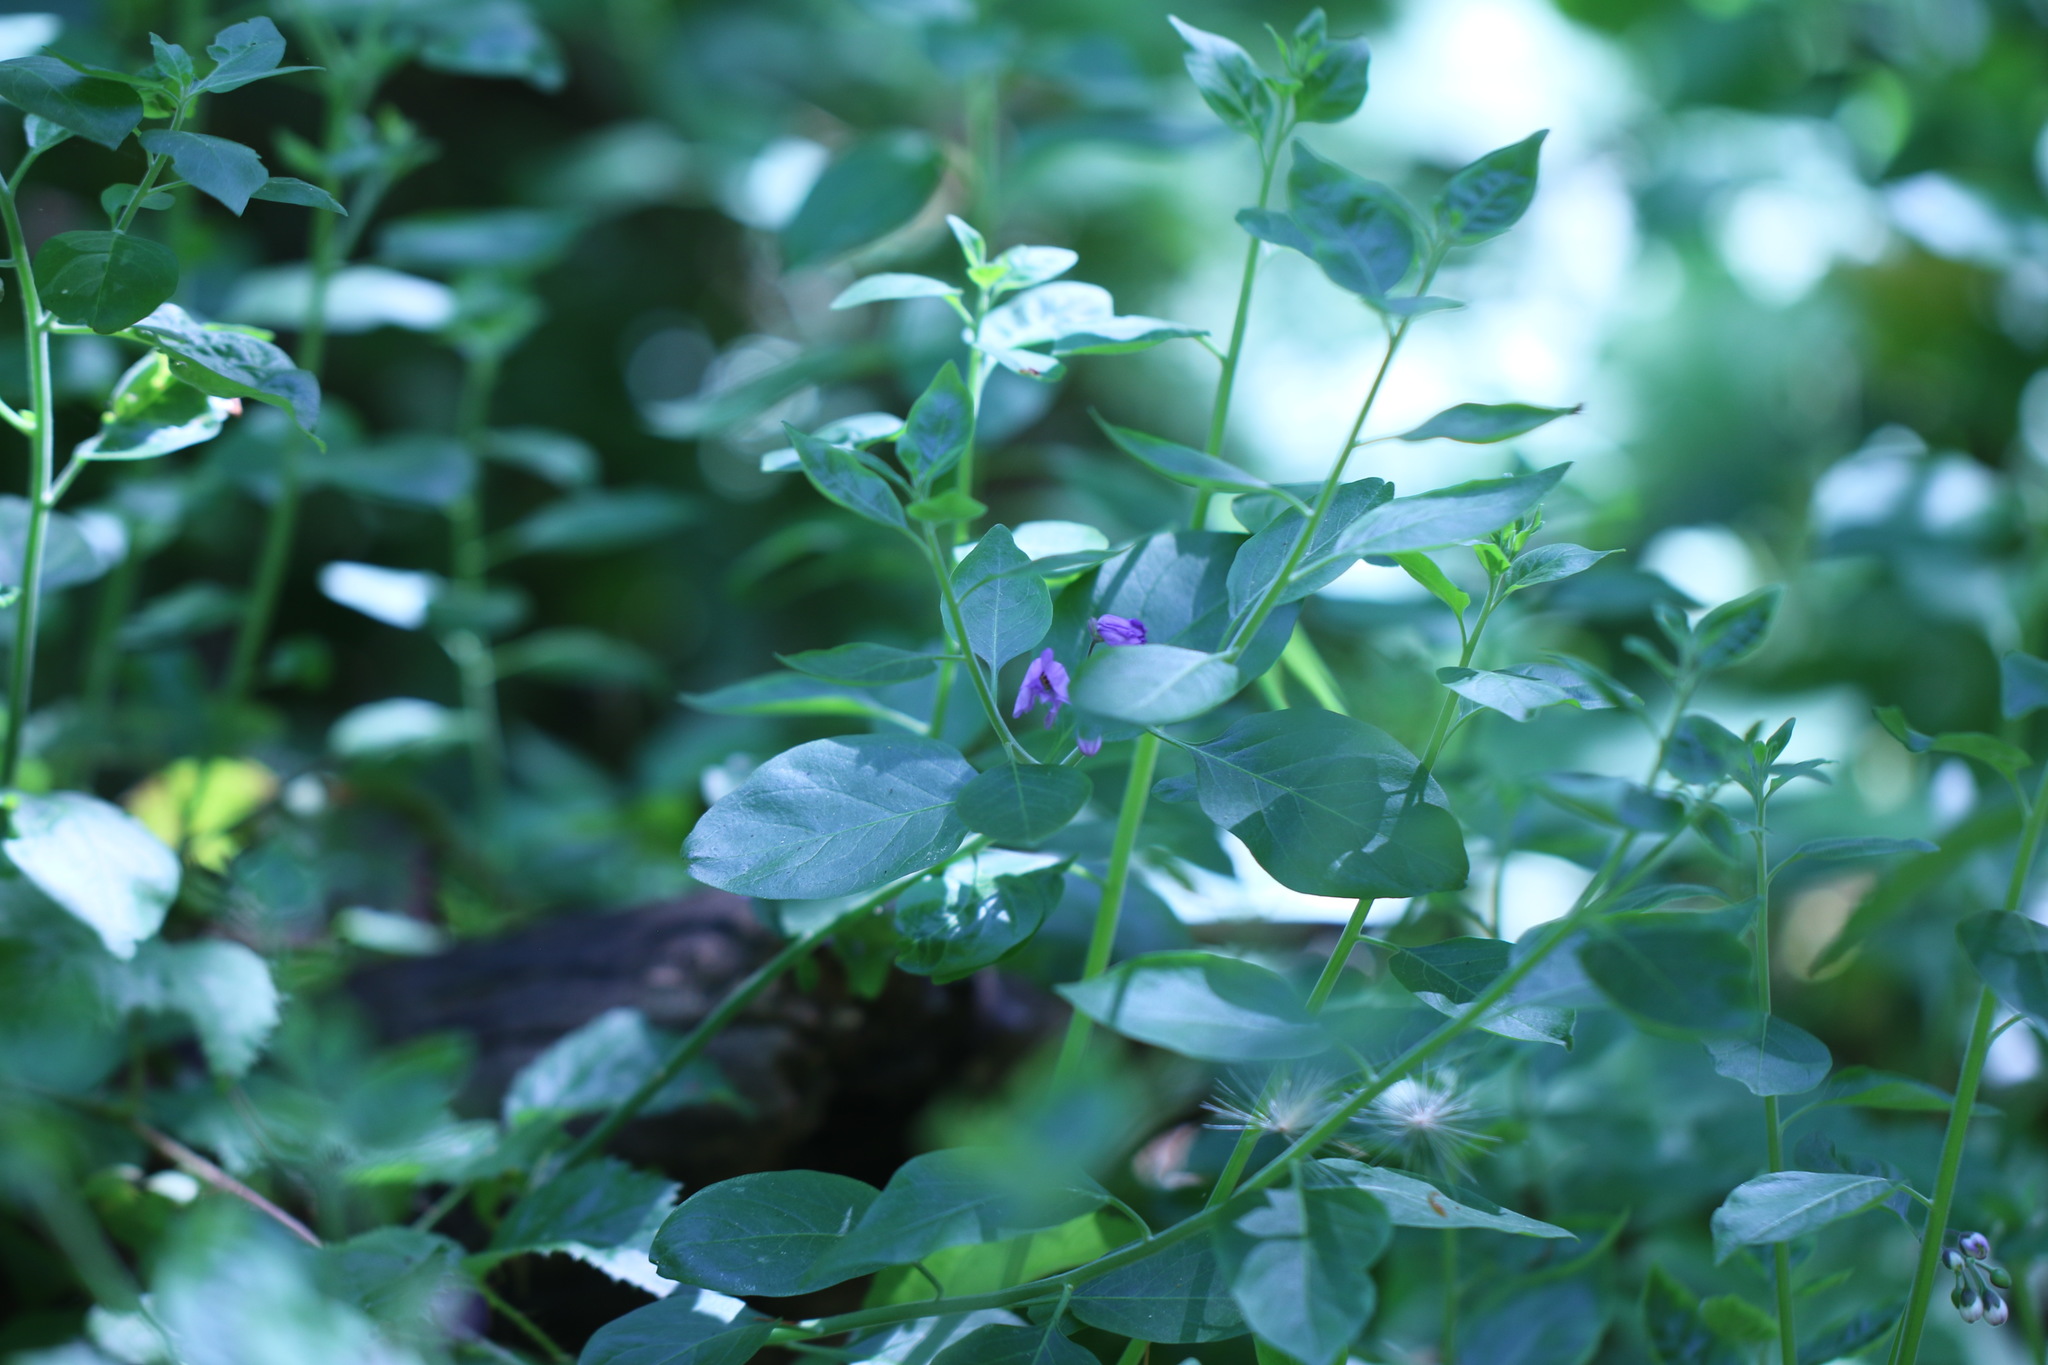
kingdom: Plantae
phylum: Tracheophyta
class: Magnoliopsida
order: Solanales
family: Solanaceae
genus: Solanum
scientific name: Solanum umbelliferum
